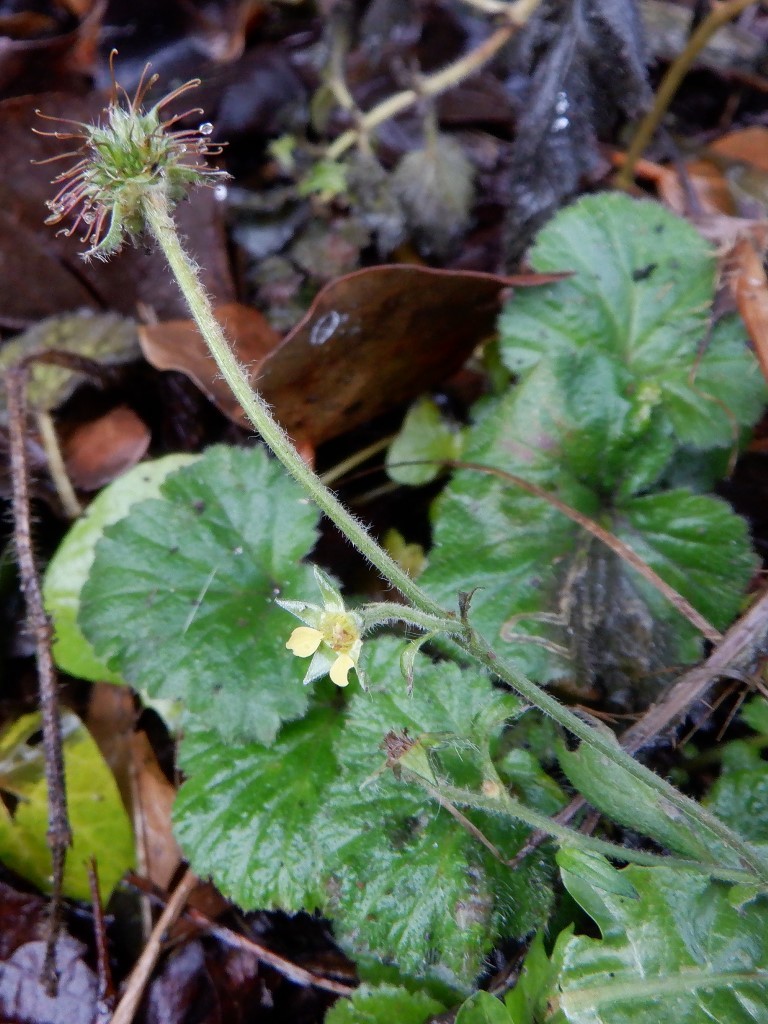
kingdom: Plantae
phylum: Tracheophyta
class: Magnoliopsida
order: Rosales
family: Rosaceae
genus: Geum
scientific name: Geum urbanum
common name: Wood avens
